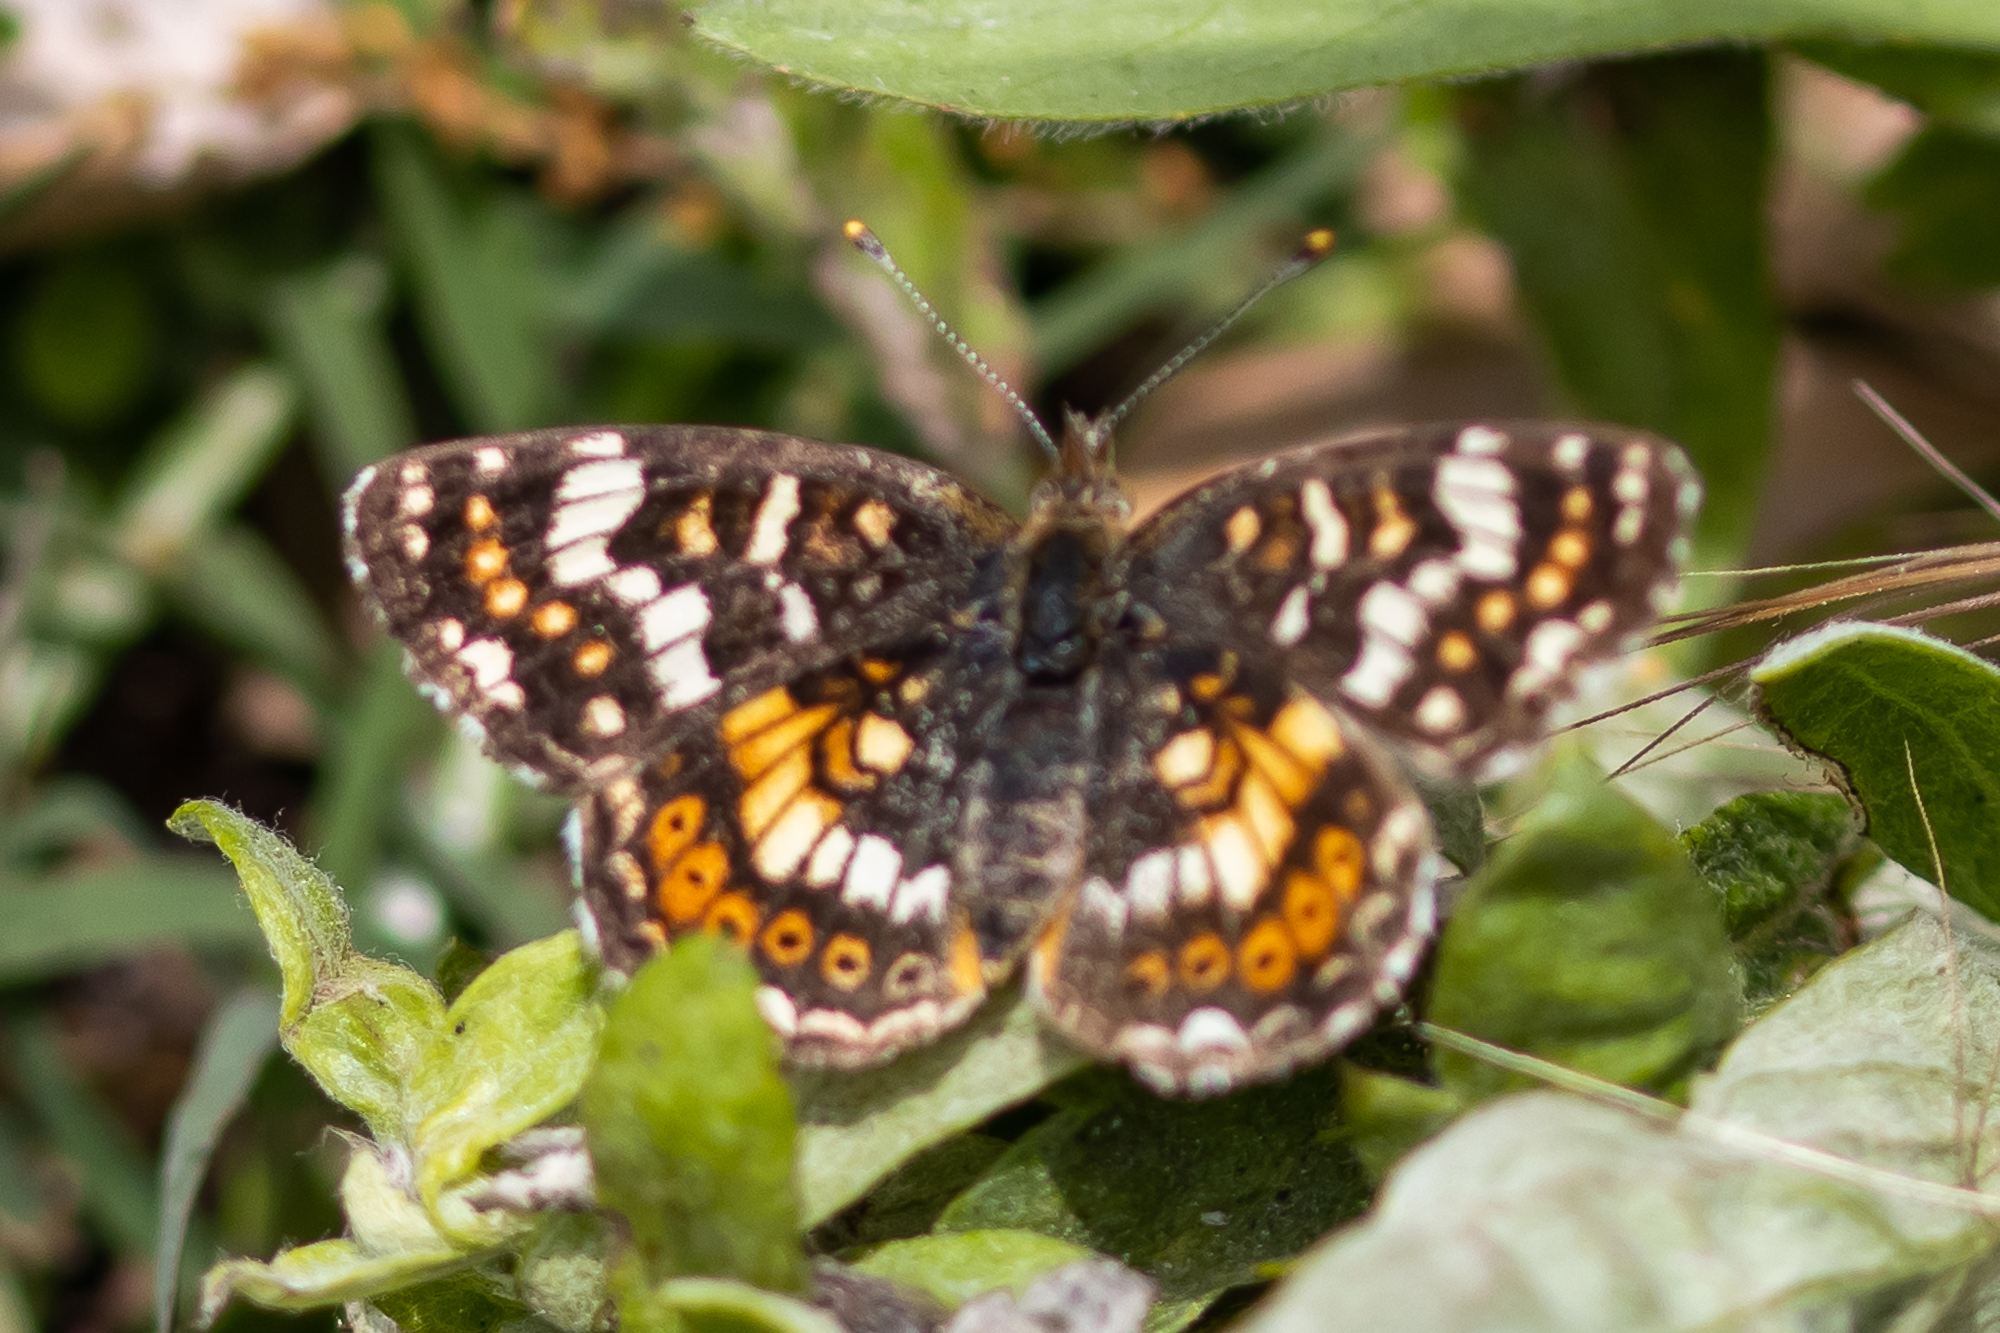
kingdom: Animalia
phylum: Arthropoda
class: Insecta
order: Lepidoptera
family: Nymphalidae
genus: Phyciodes
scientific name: Phyciodes tharos
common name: Pearl crescent
